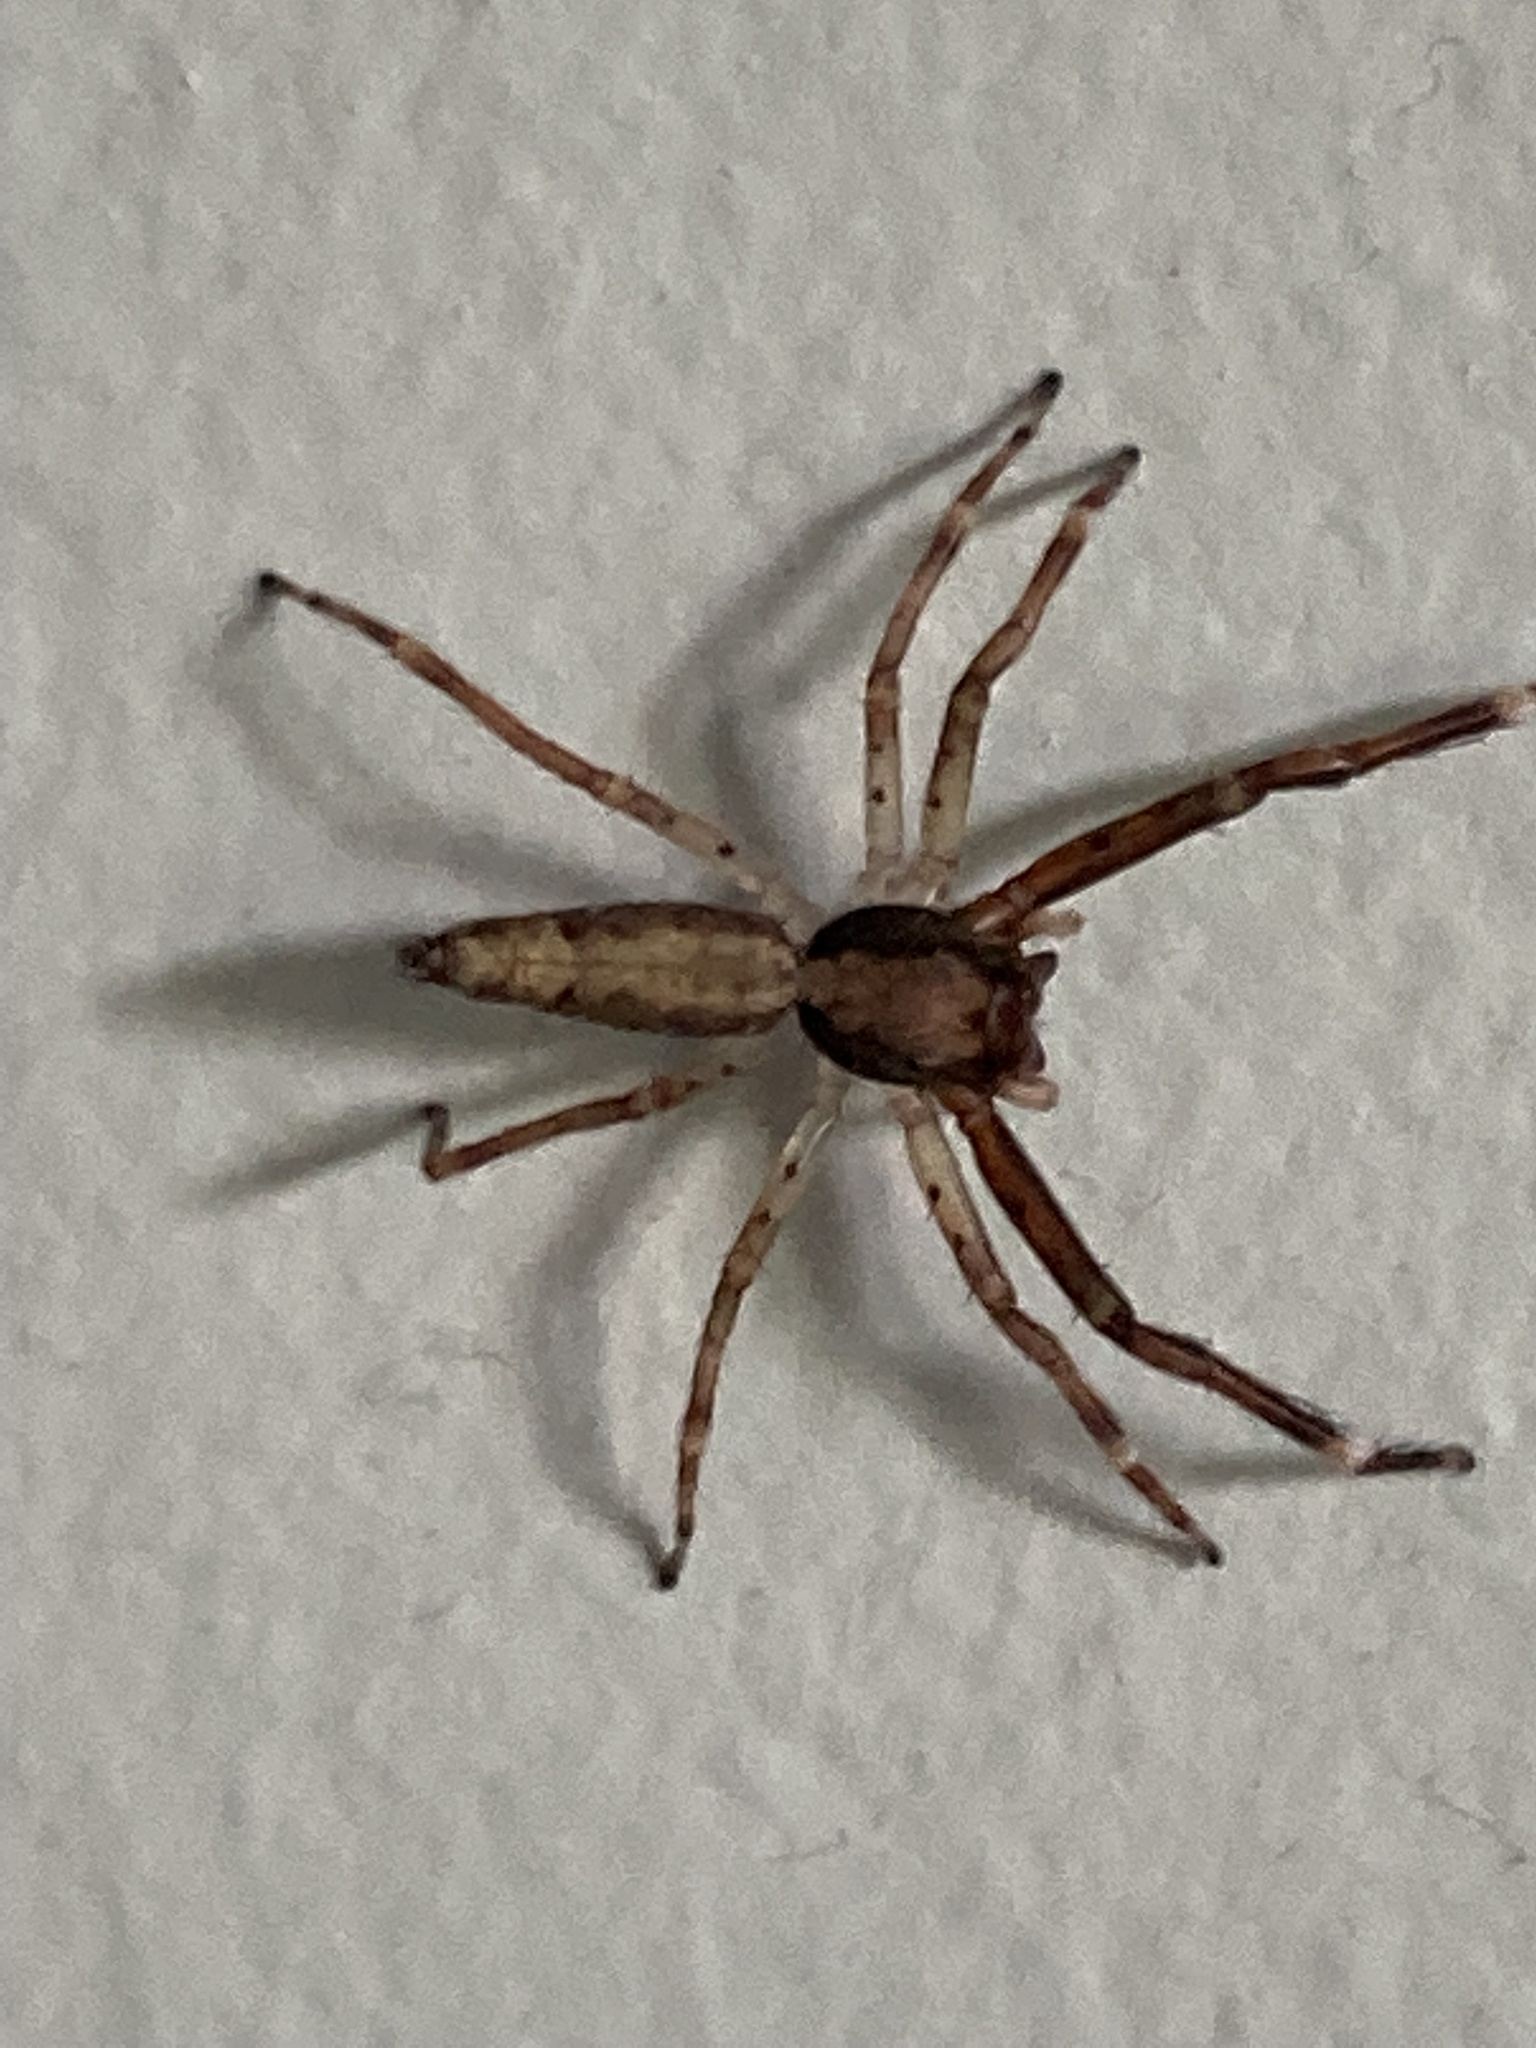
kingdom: Animalia
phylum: Arthropoda
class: Arachnida
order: Araneae
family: Salticidae
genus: Helpis
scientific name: Helpis minitabunda
